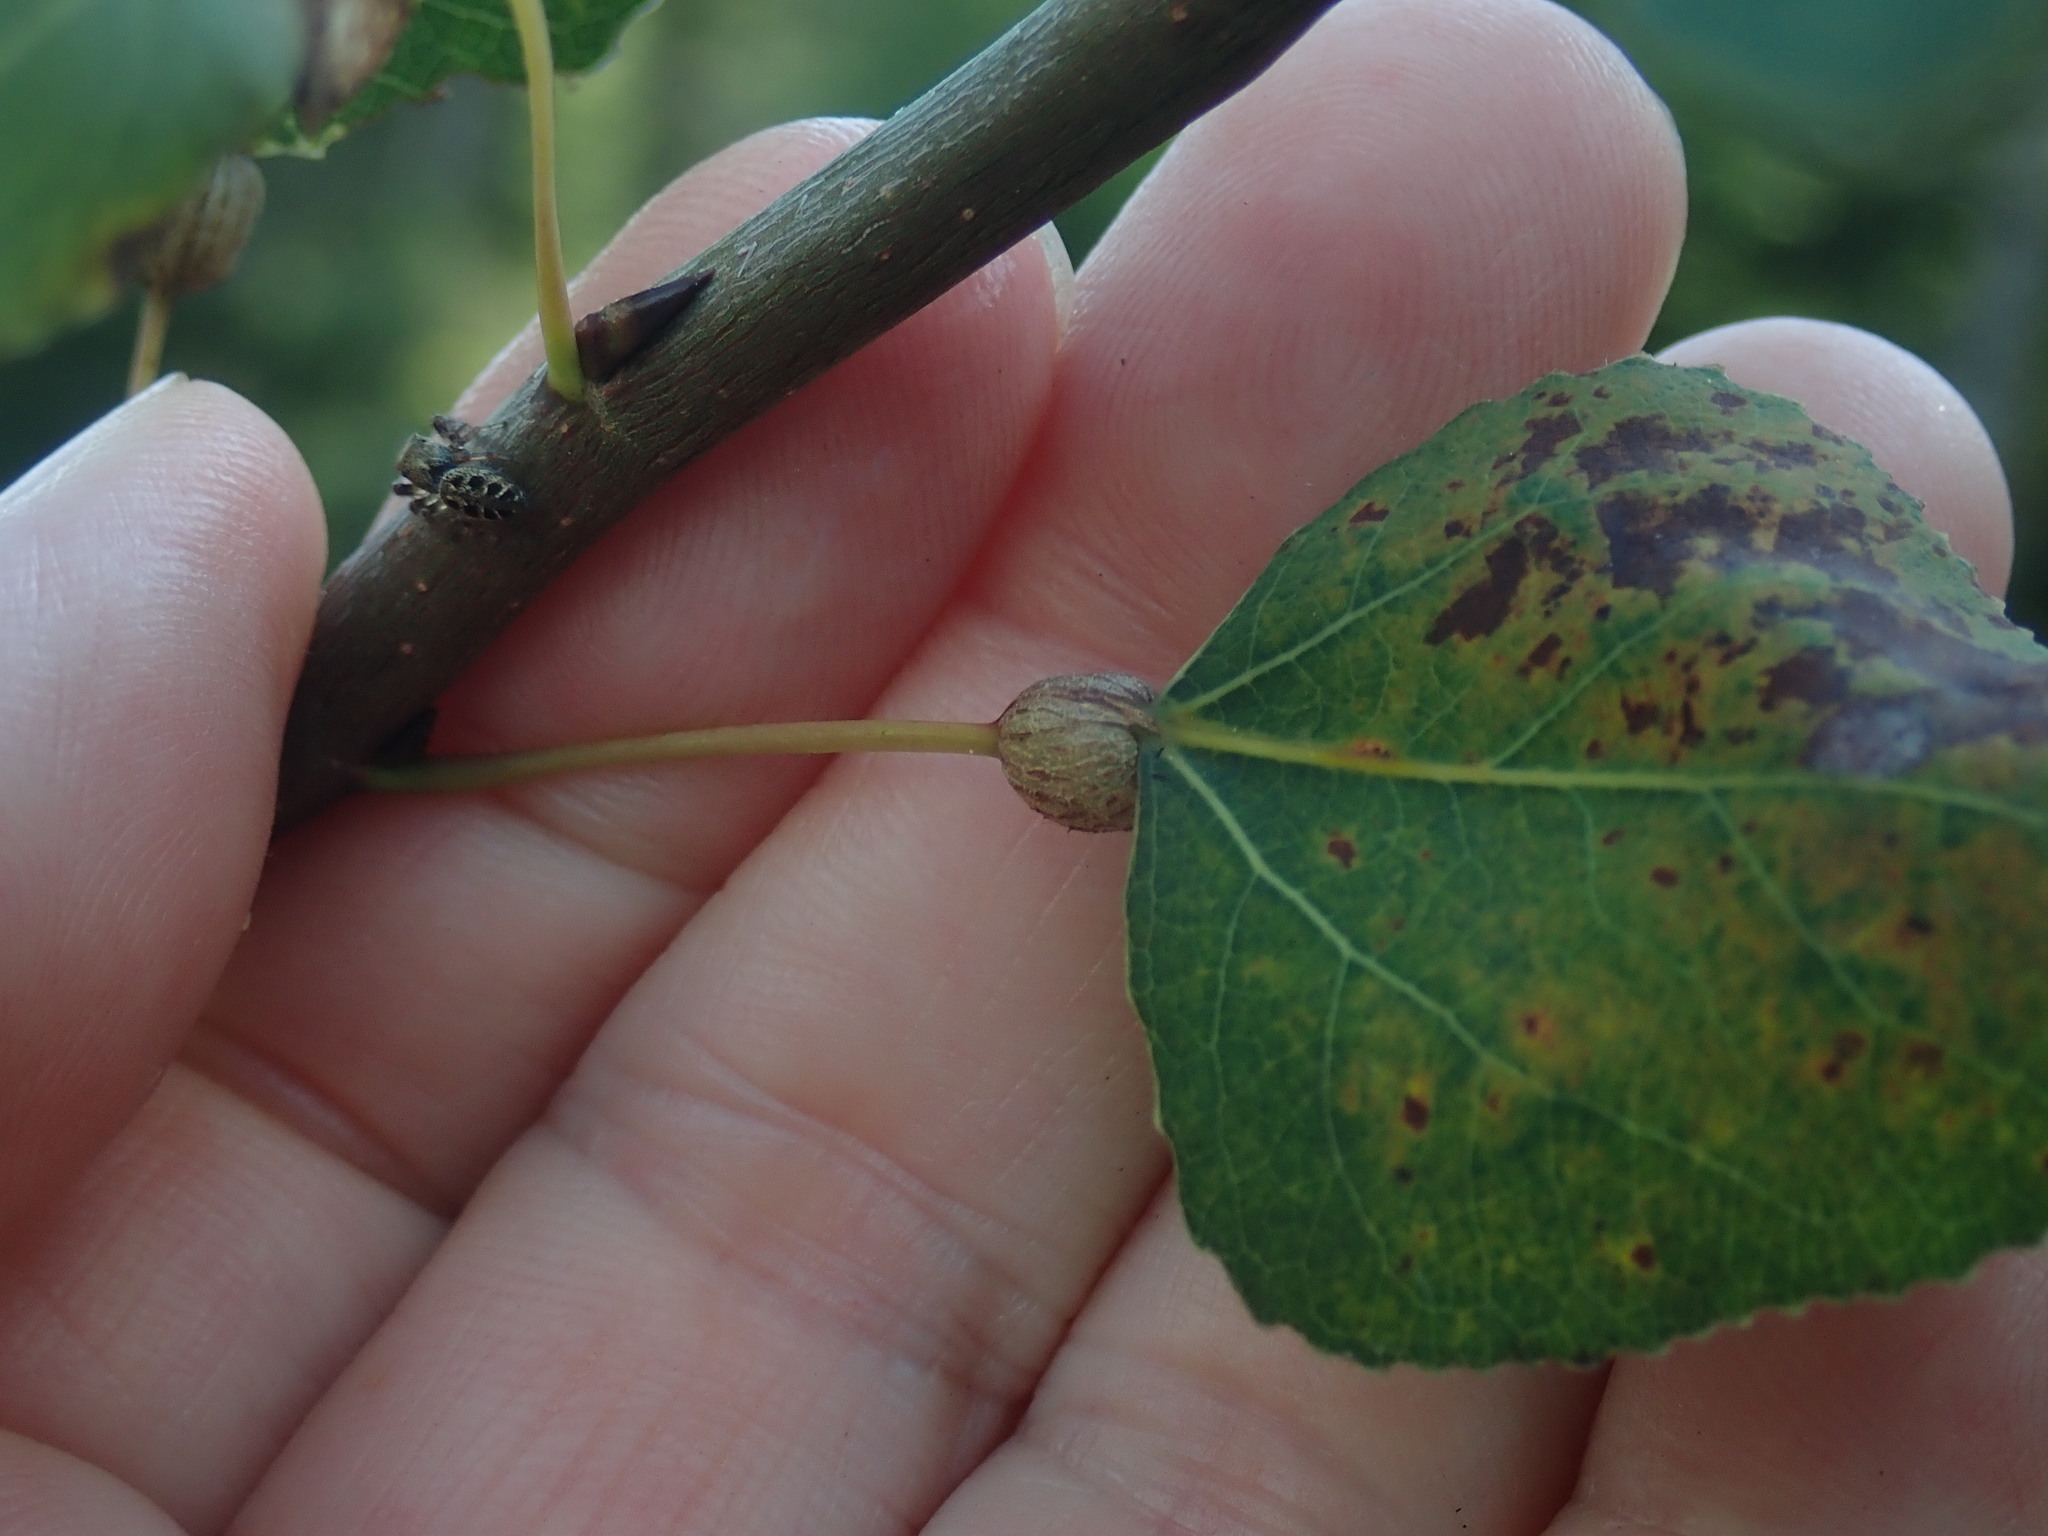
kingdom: Animalia
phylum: Arthropoda
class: Insecta
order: Lepidoptera
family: Nepticulidae
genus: Ectoedemia
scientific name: Ectoedemia populella
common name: Aspen petiole gall moth
